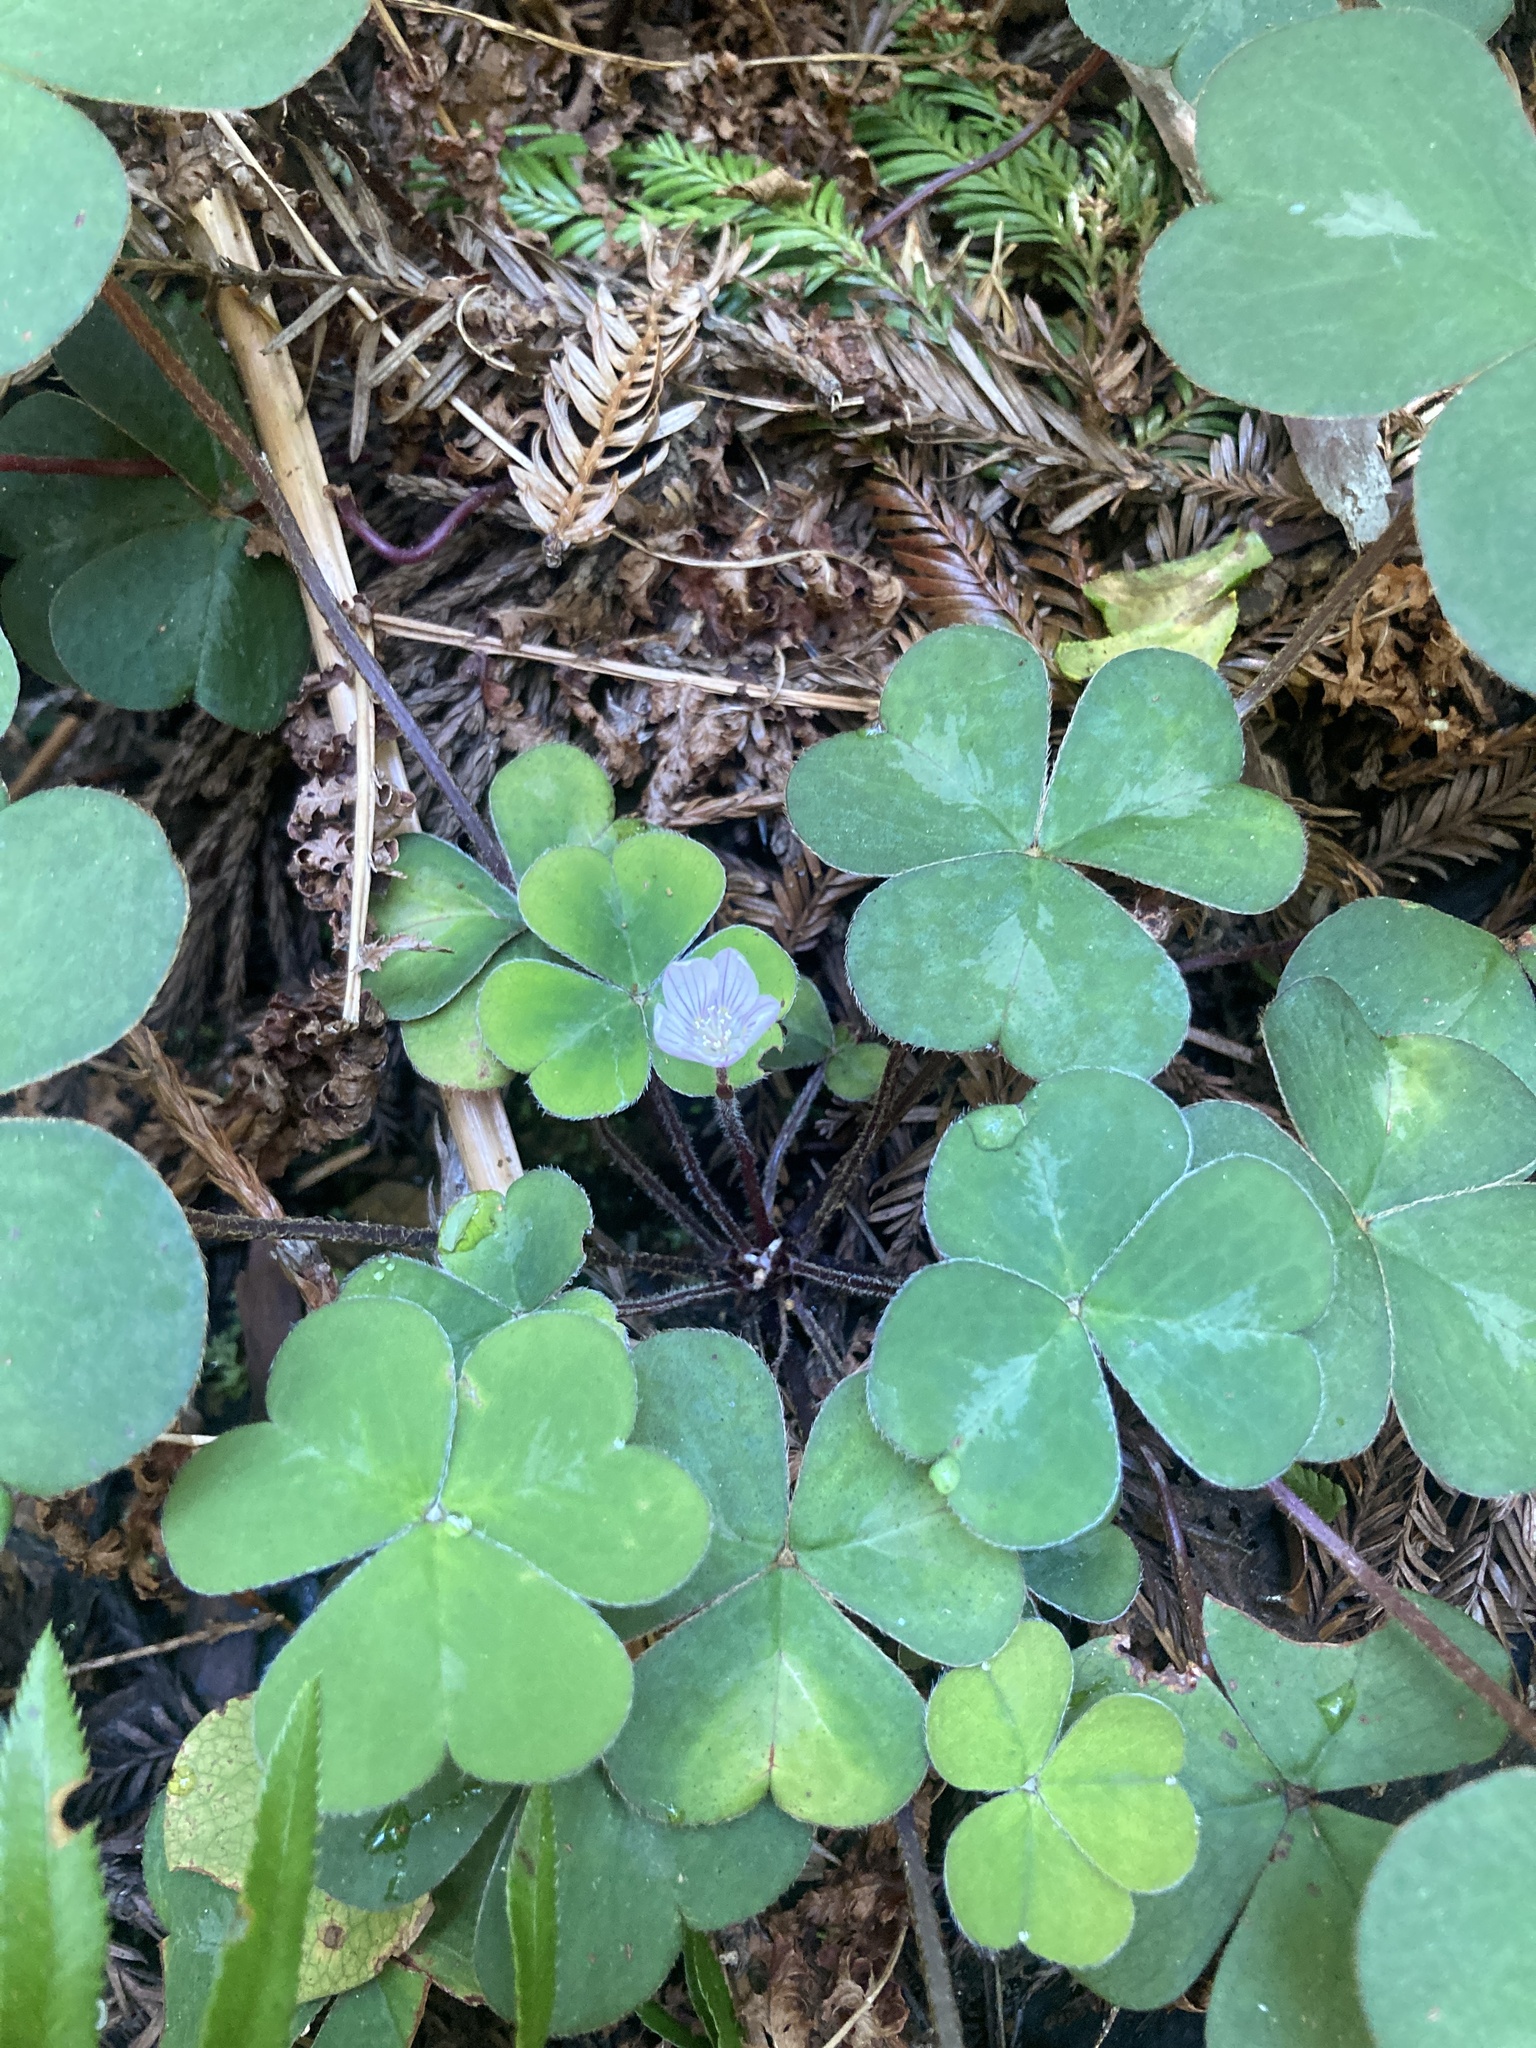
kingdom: Plantae
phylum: Tracheophyta
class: Magnoliopsida
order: Oxalidales
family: Oxalidaceae
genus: Oxalis
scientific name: Oxalis oregana
